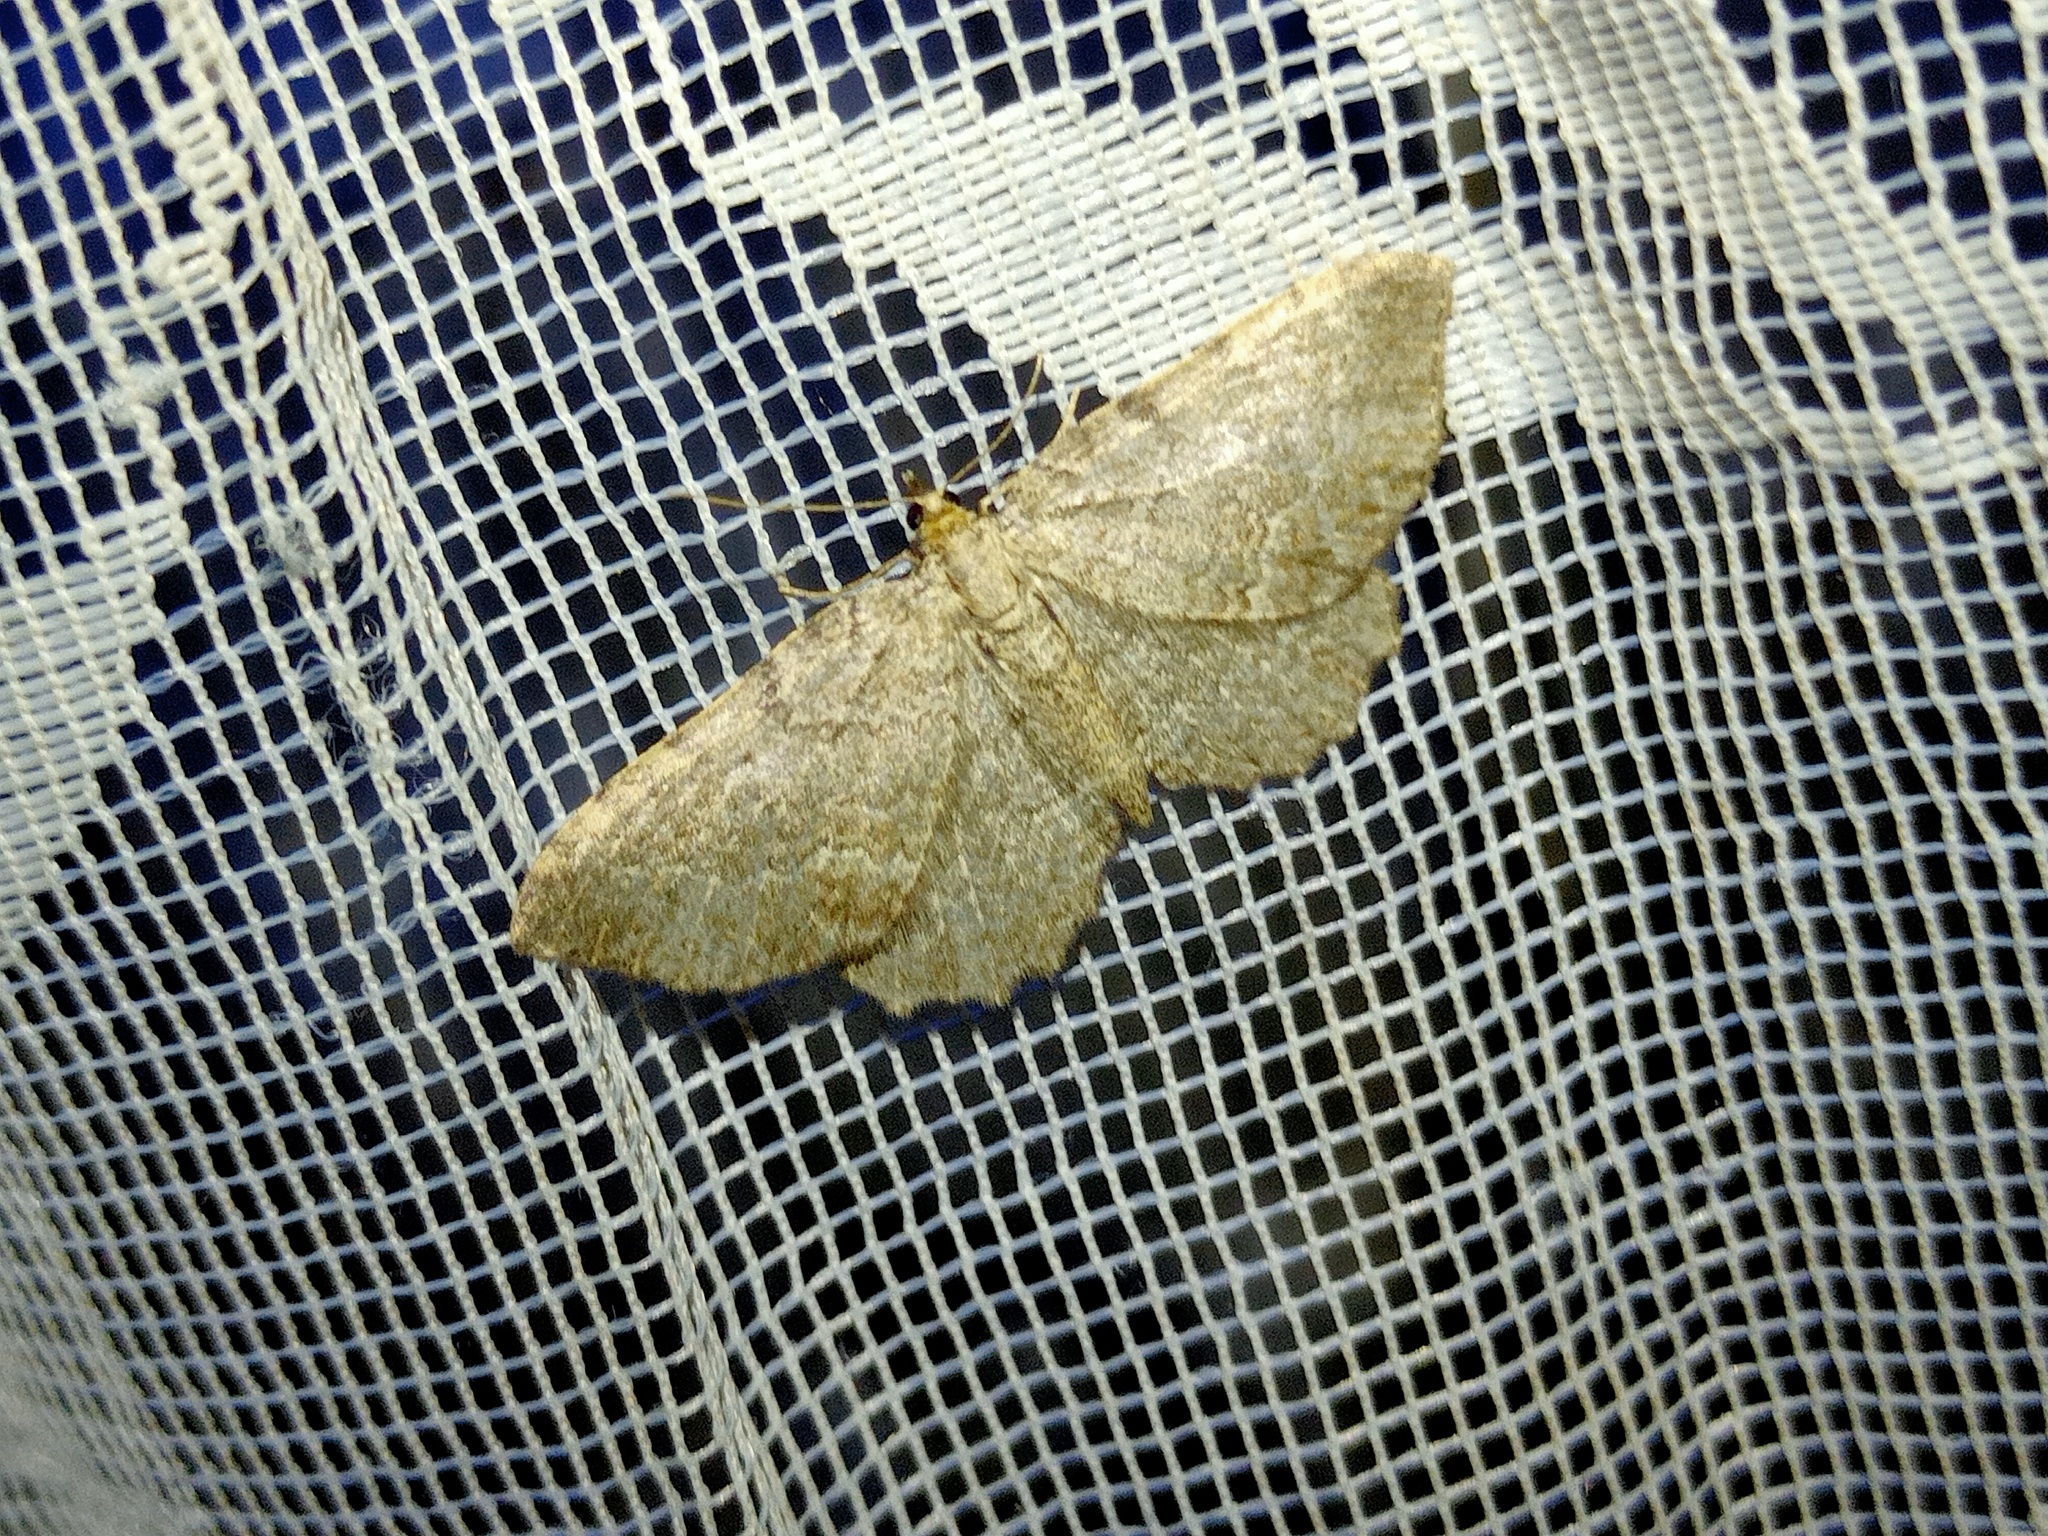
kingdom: Animalia
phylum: Arthropoda
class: Insecta
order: Lepidoptera
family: Geometridae
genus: Philereme
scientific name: Philereme vetulata
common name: Brown scallop
